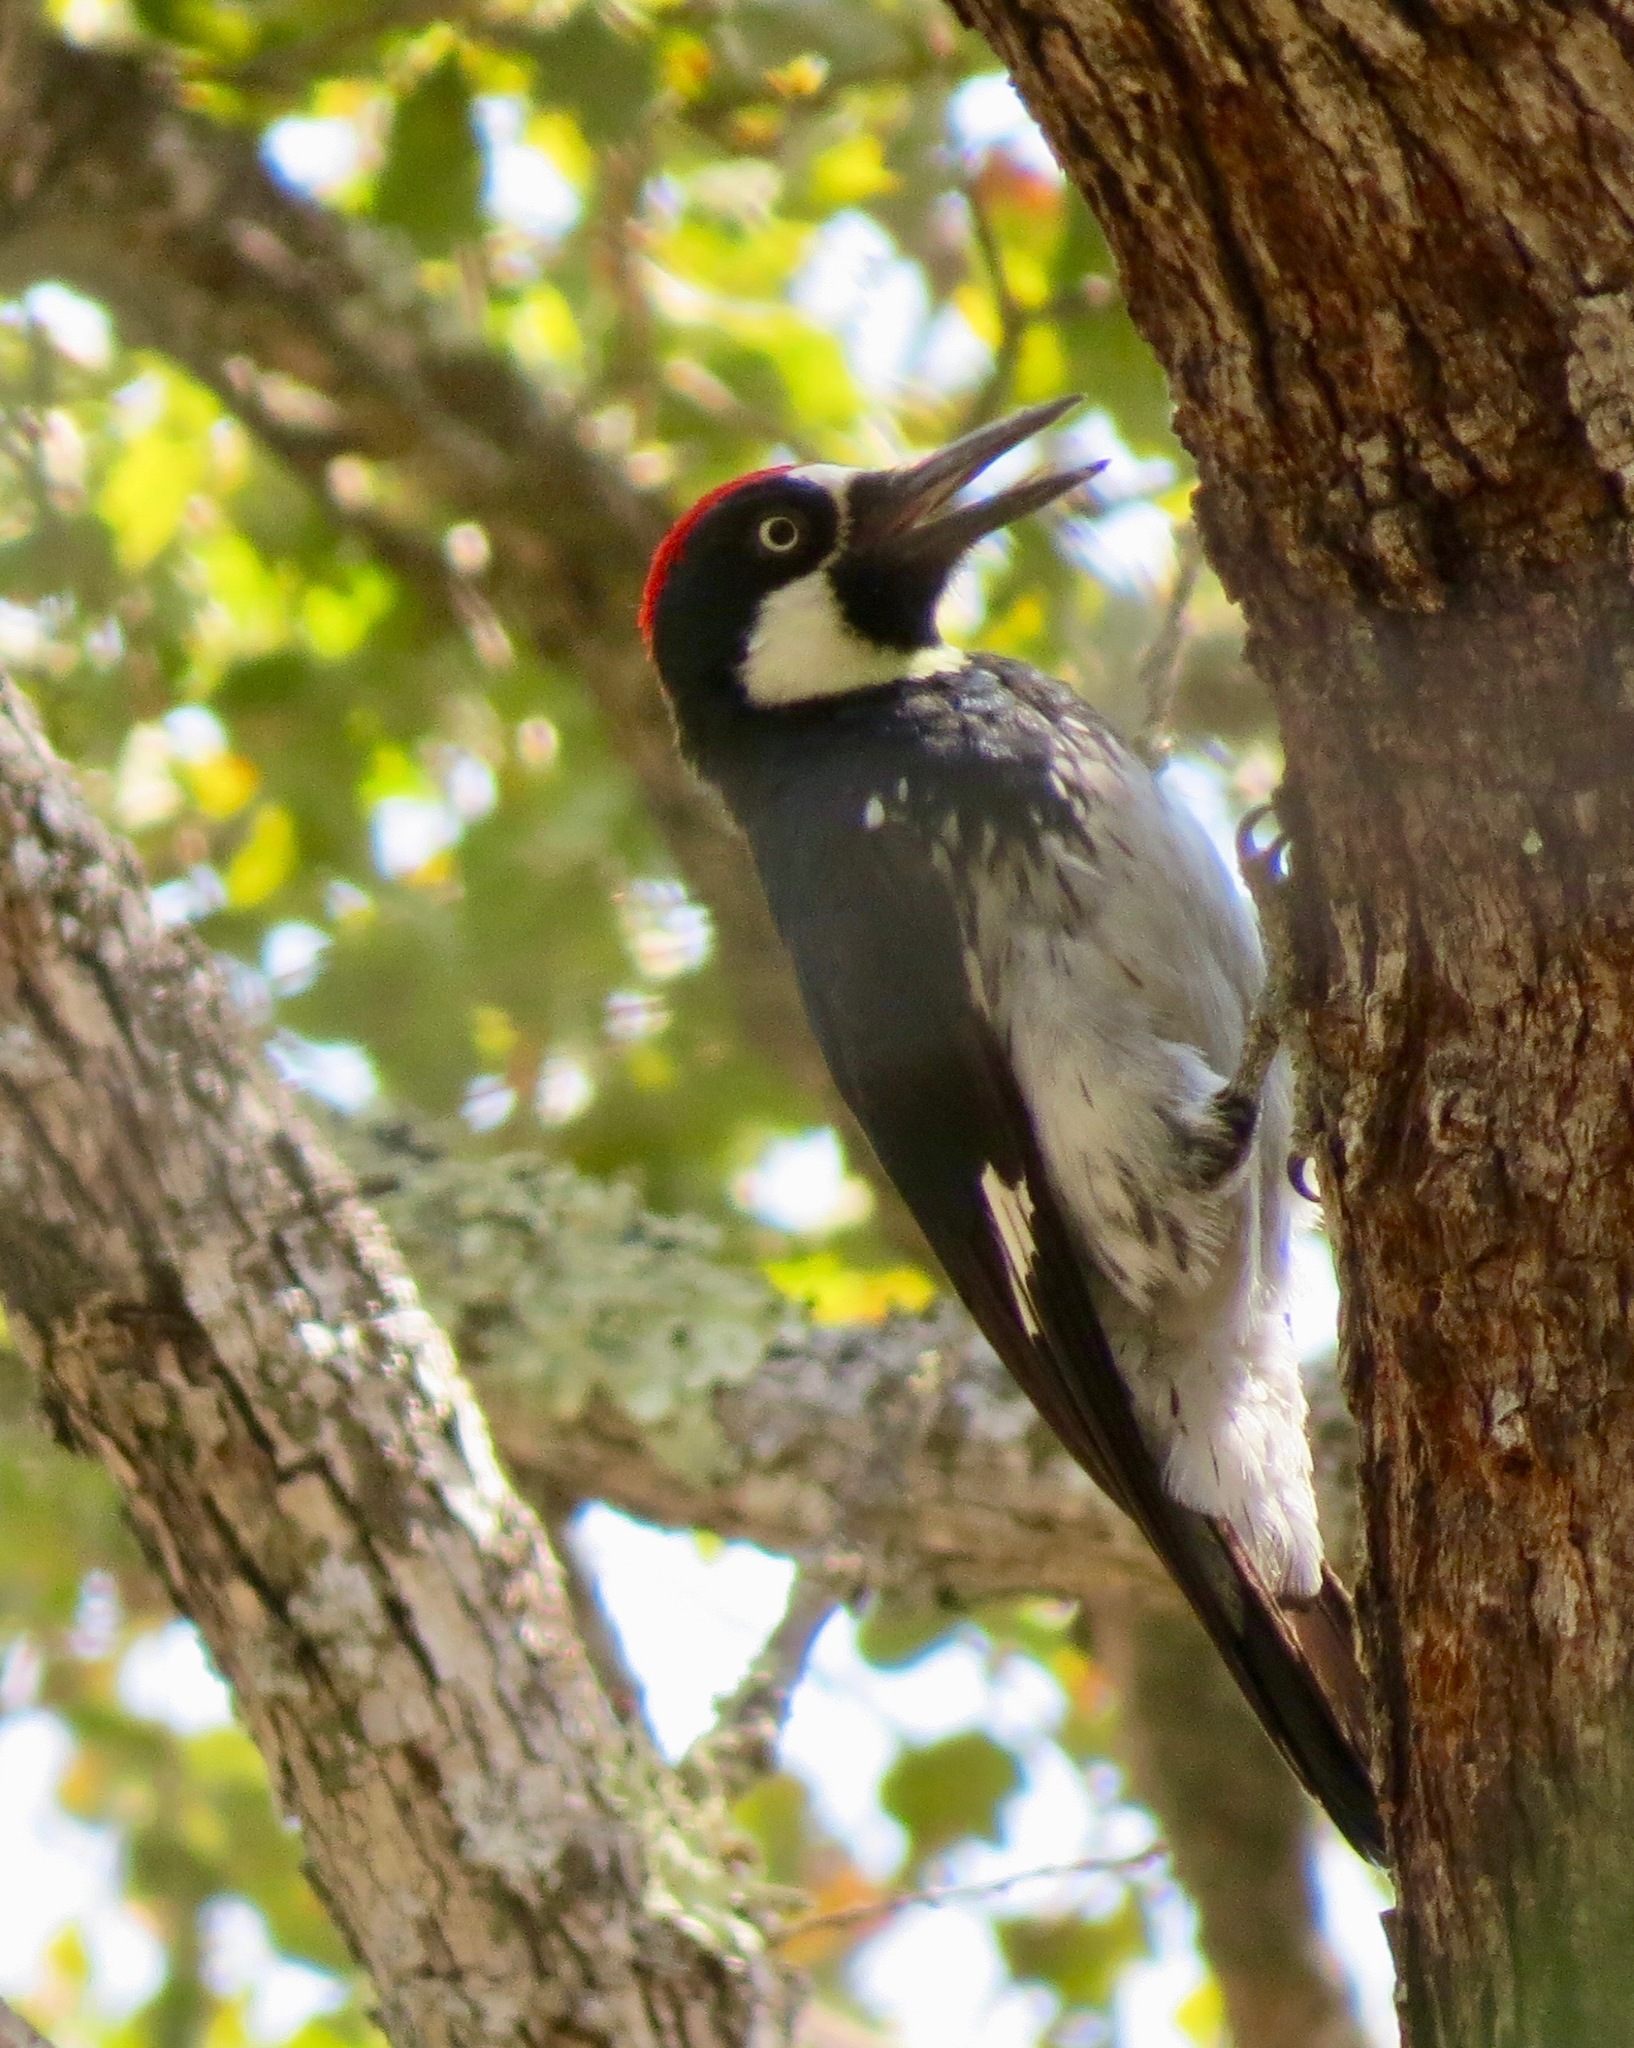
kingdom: Animalia
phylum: Chordata
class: Aves
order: Piciformes
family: Picidae
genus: Melanerpes
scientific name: Melanerpes formicivorus
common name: Acorn woodpecker
